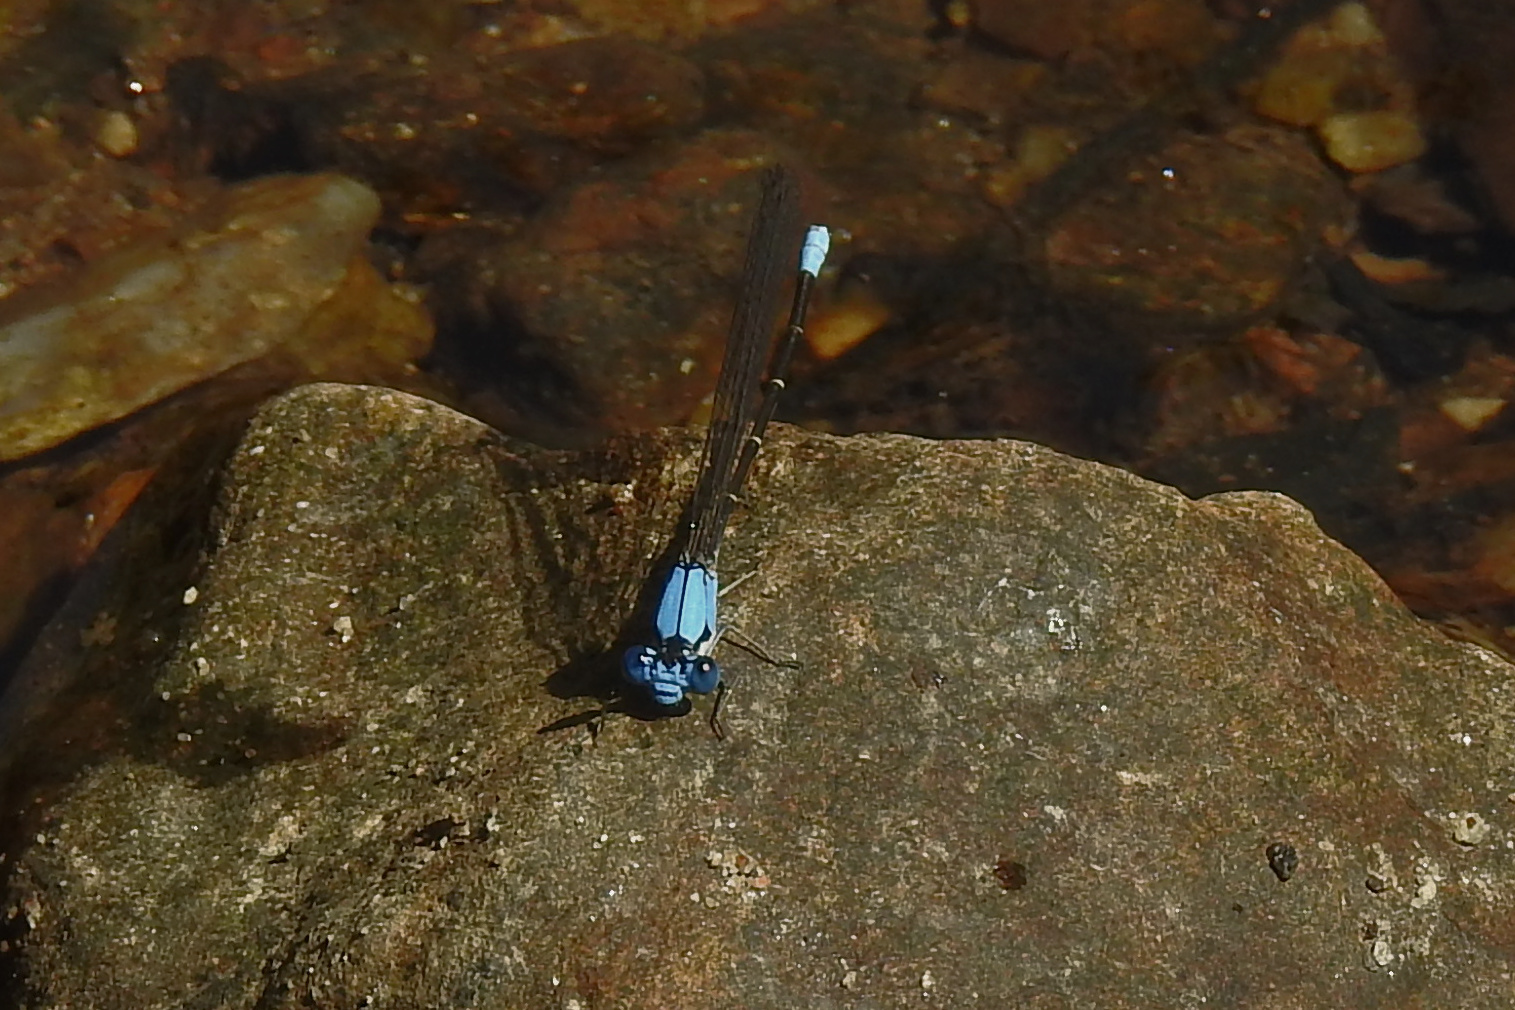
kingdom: Animalia
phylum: Arthropoda
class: Insecta
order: Odonata
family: Coenagrionidae
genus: Argia
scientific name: Argia apicalis
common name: Blue-fronted dancer
